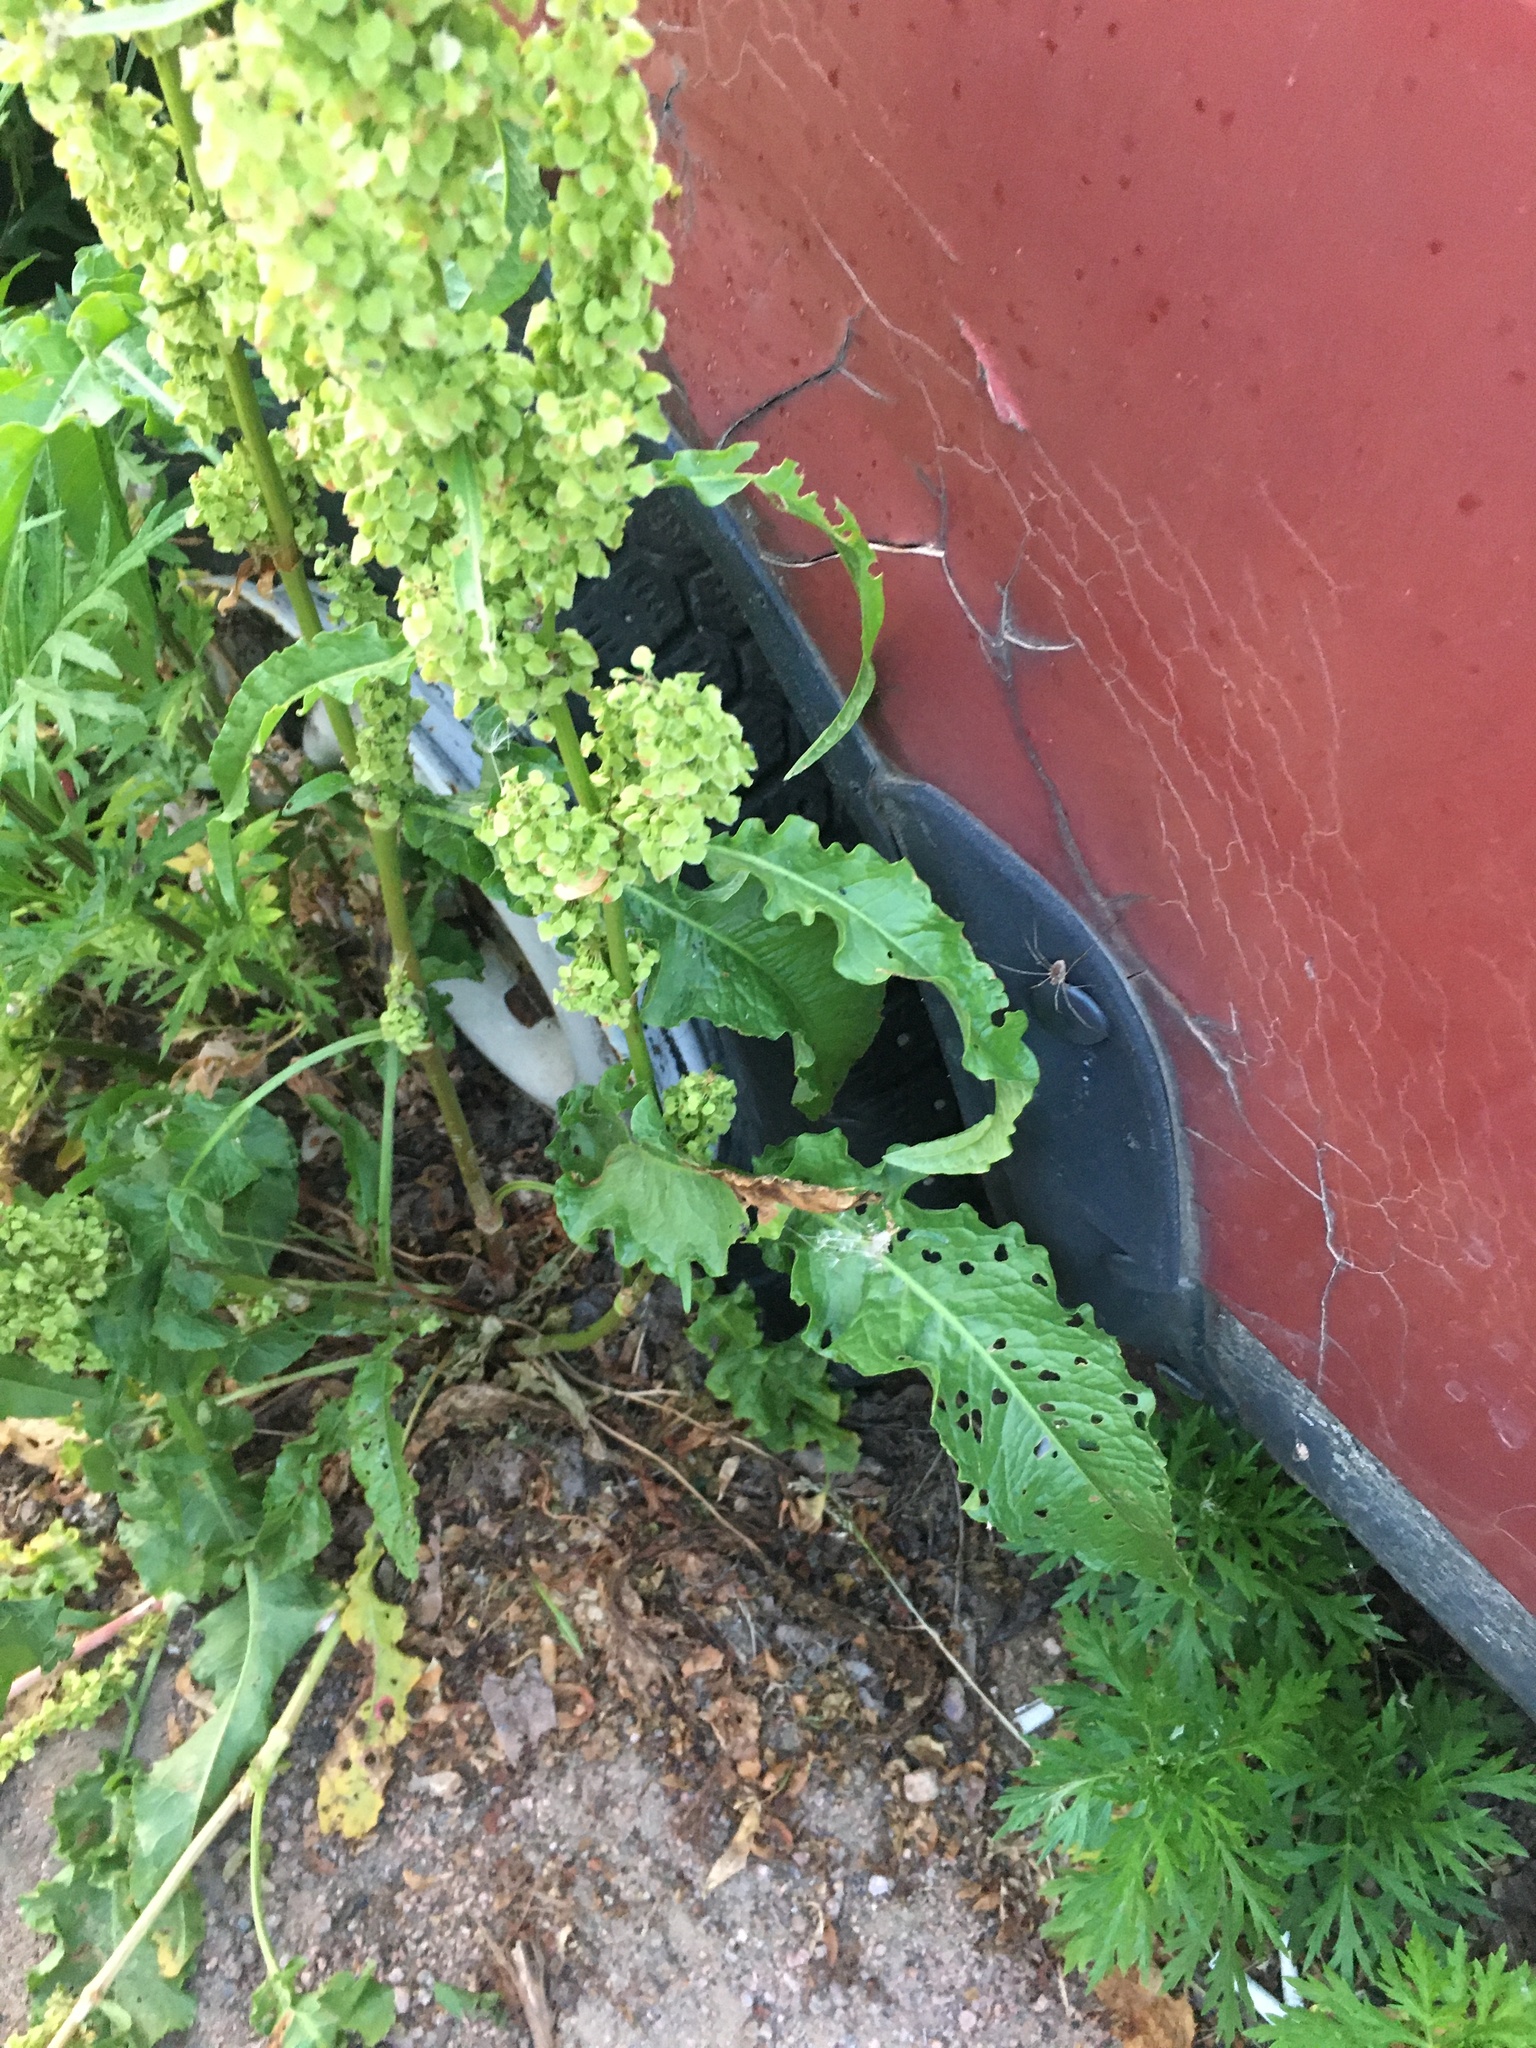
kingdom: Plantae
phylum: Tracheophyta
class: Magnoliopsida
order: Caryophyllales
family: Polygonaceae
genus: Rumex
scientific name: Rumex crispus
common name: Curled dock
